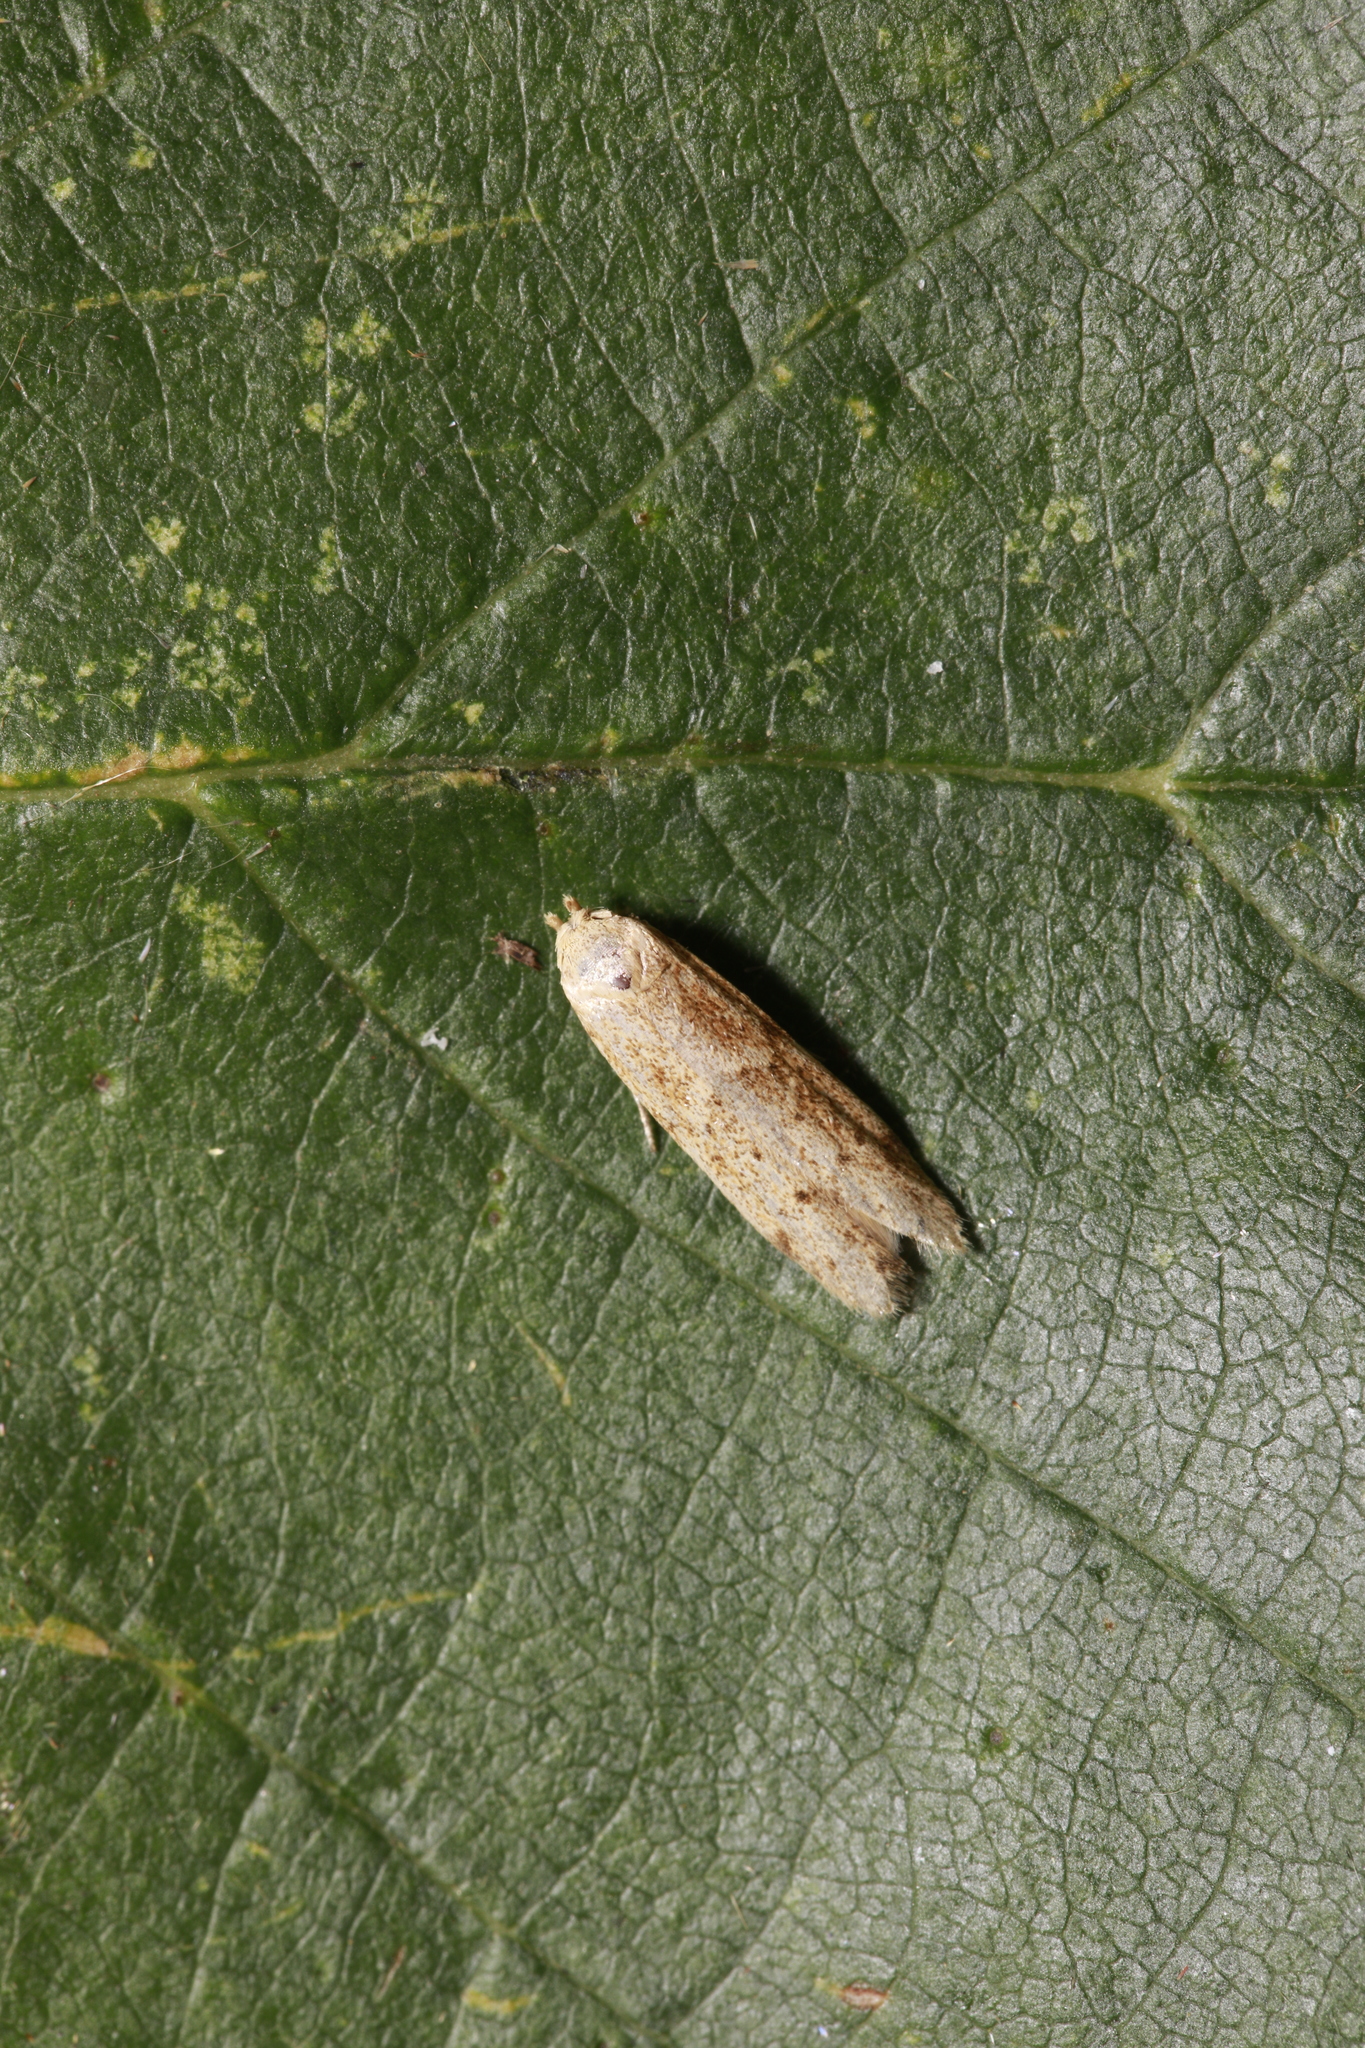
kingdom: Animalia
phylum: Arthropoda
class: Insecta
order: Lepidoptera
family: Blastobasidae
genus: Blastobasis
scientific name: Blastobasis lacticolella
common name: London dowd
